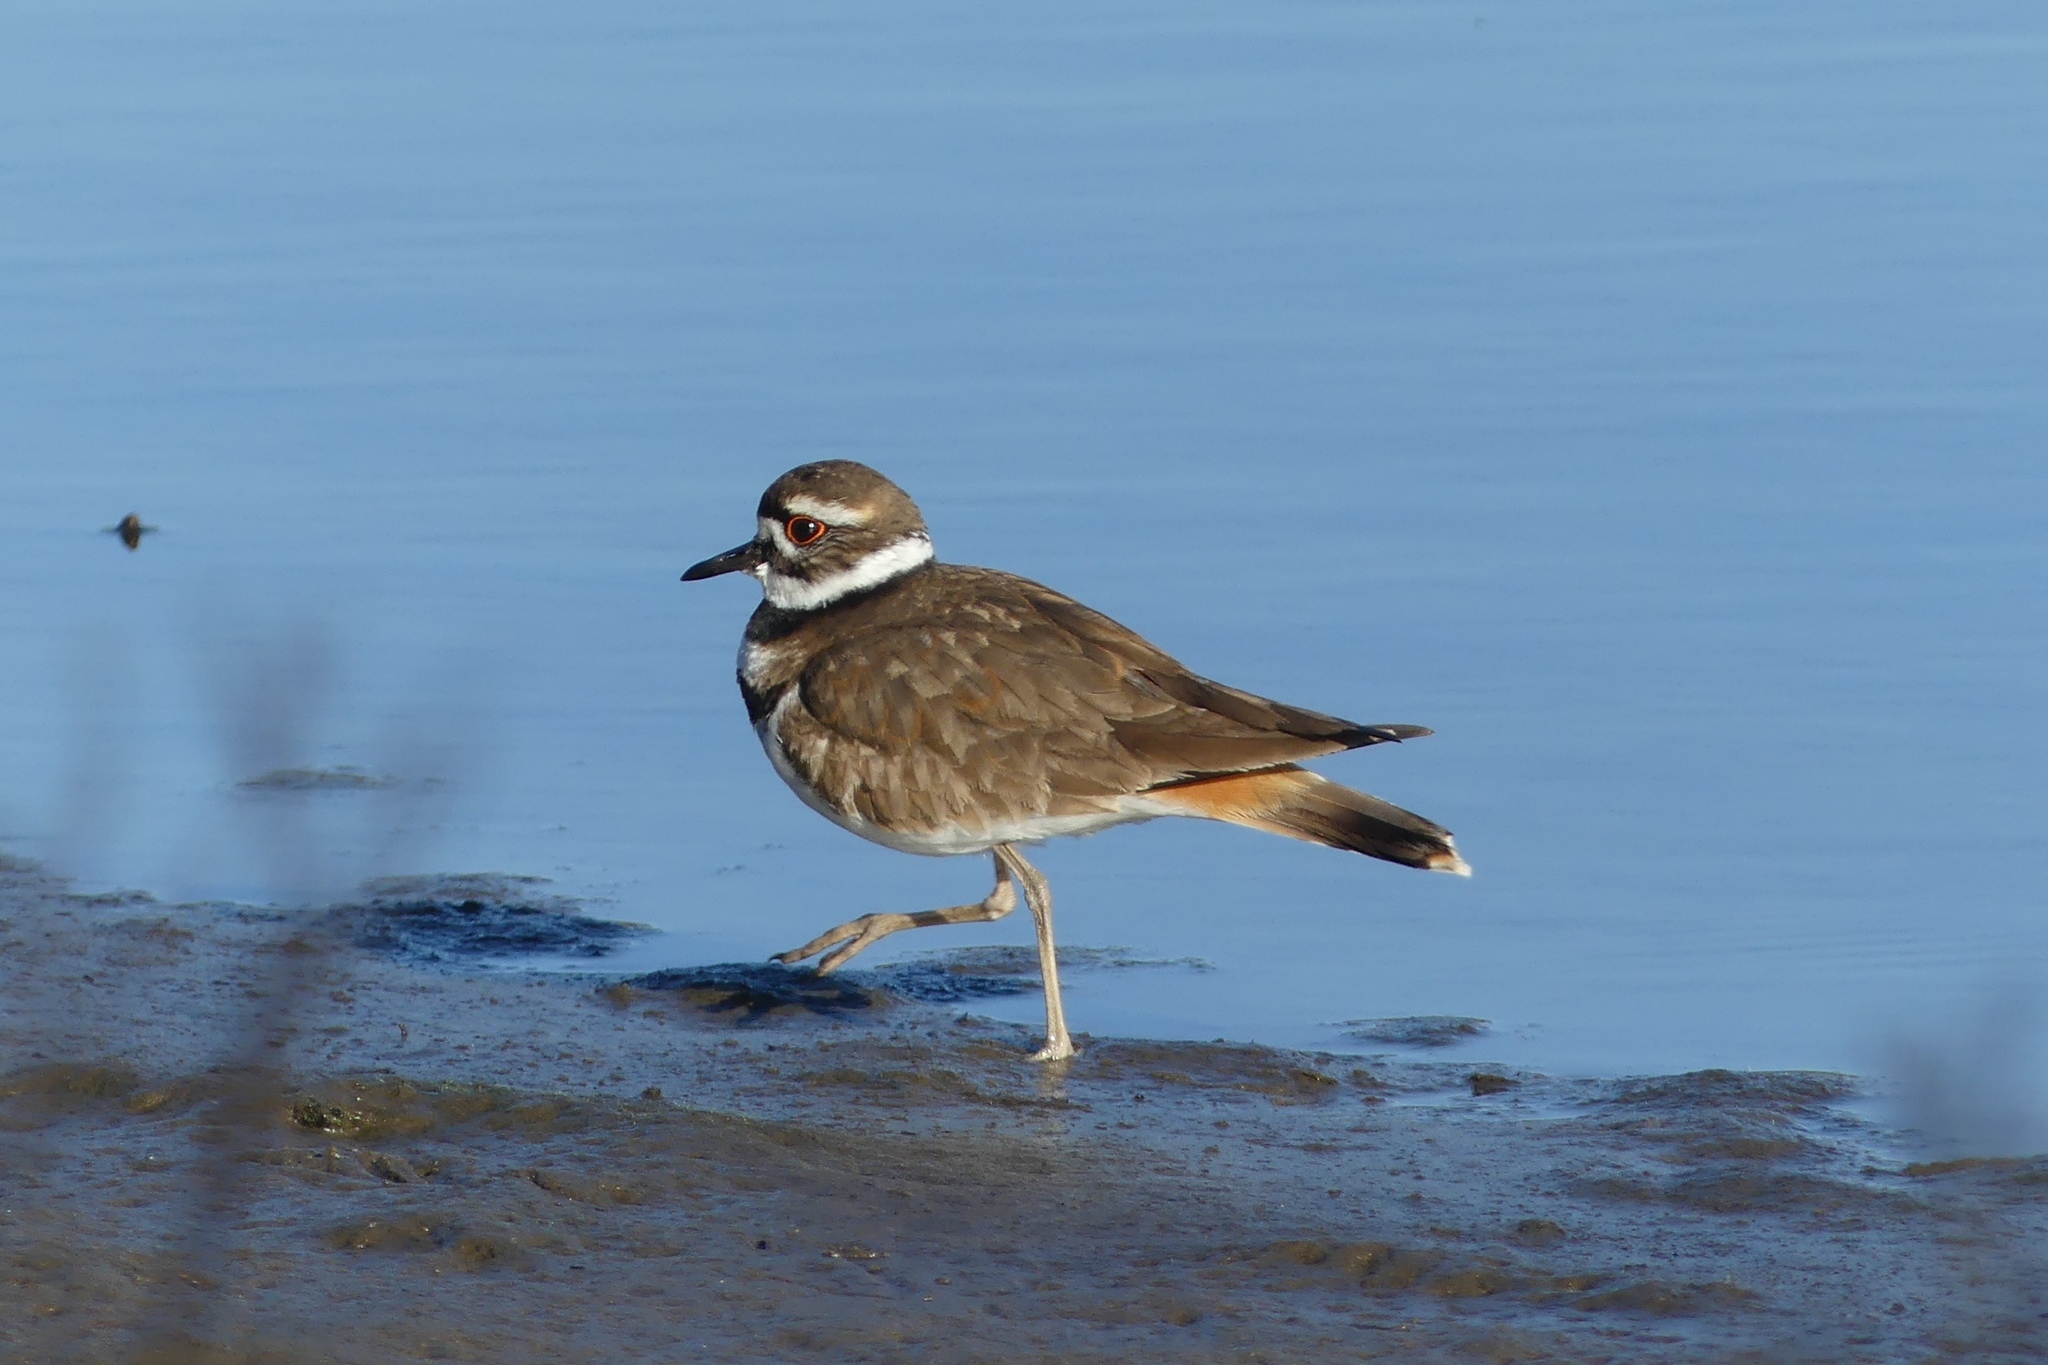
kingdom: Animalia
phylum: Chordata
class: Aves
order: Charadriiformes
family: Charadriidae
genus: Charadrius
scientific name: Charadrius vociferus
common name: Killdeer
